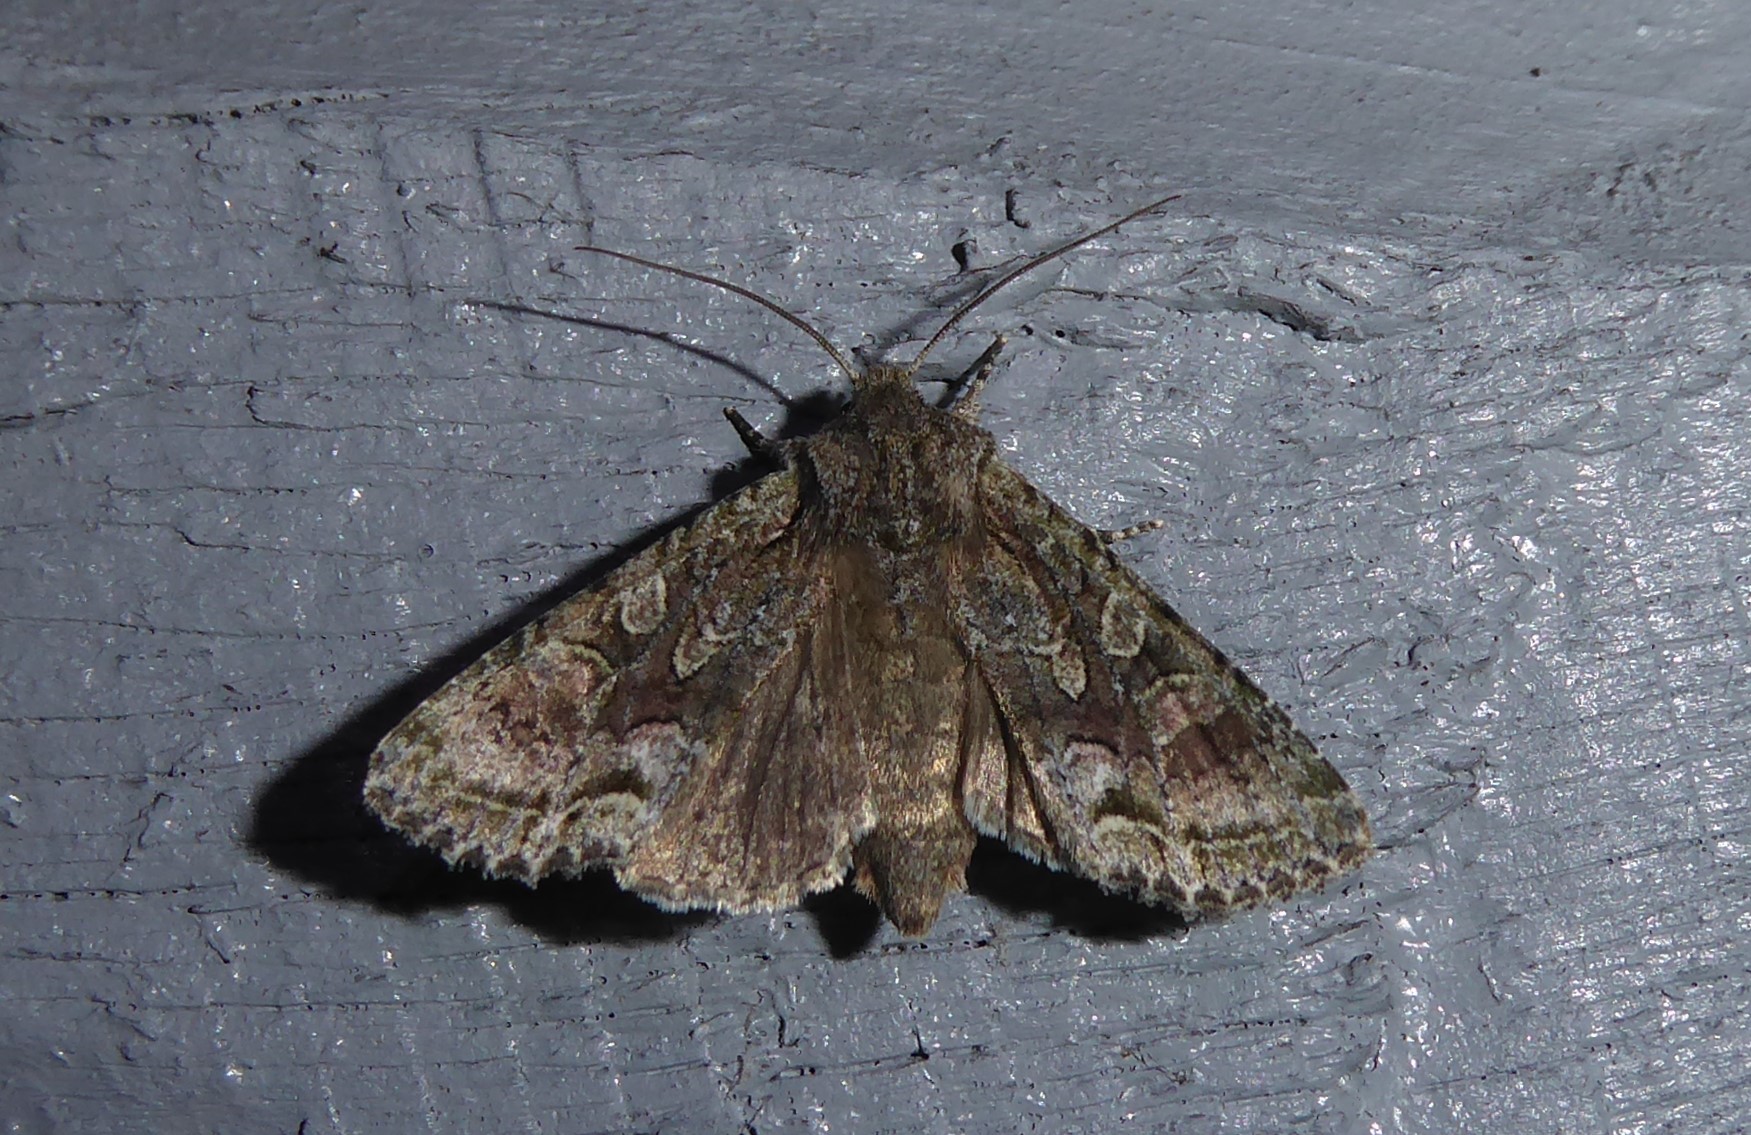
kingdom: Animalia
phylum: Arthropoda
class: Insecta
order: Lepidoptera
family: Noctuidae
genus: Ichneutica
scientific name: Ichneutica mutans
